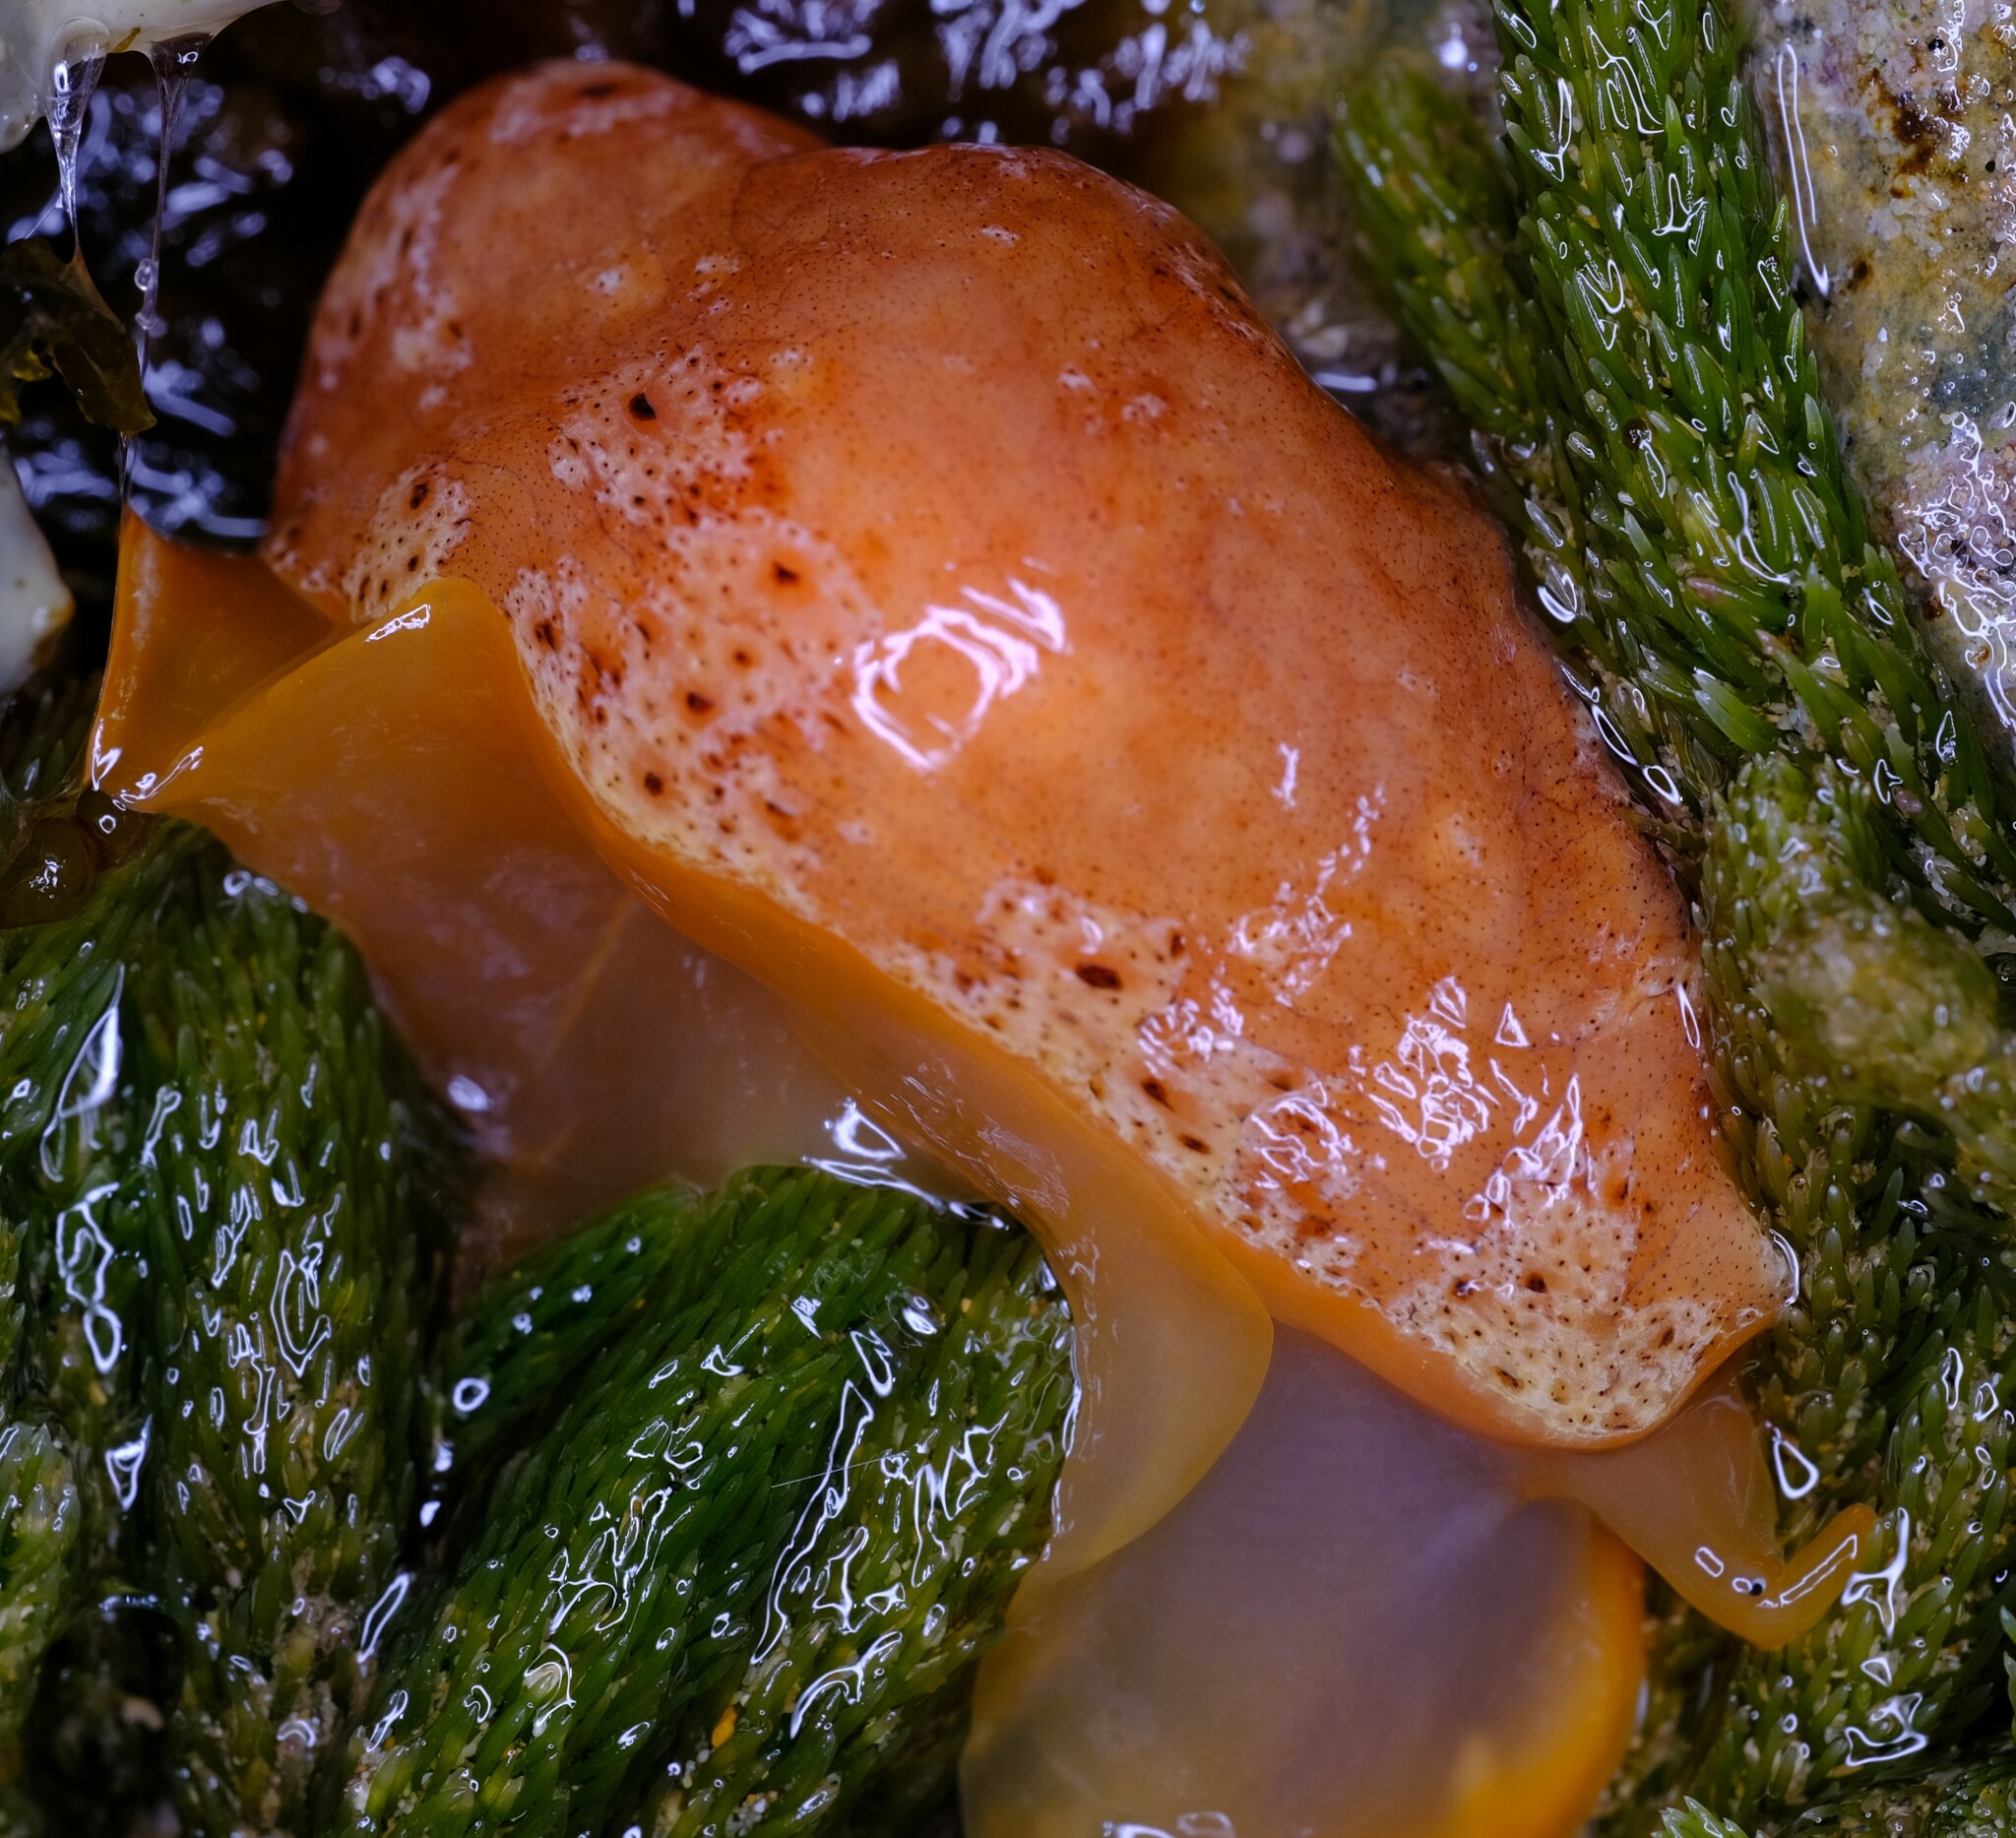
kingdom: Animalia
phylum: Mollusca
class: Gastropoda
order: Littorinimorpha
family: Velutinidae
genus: Djiboutia
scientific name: Djiboutia australis
